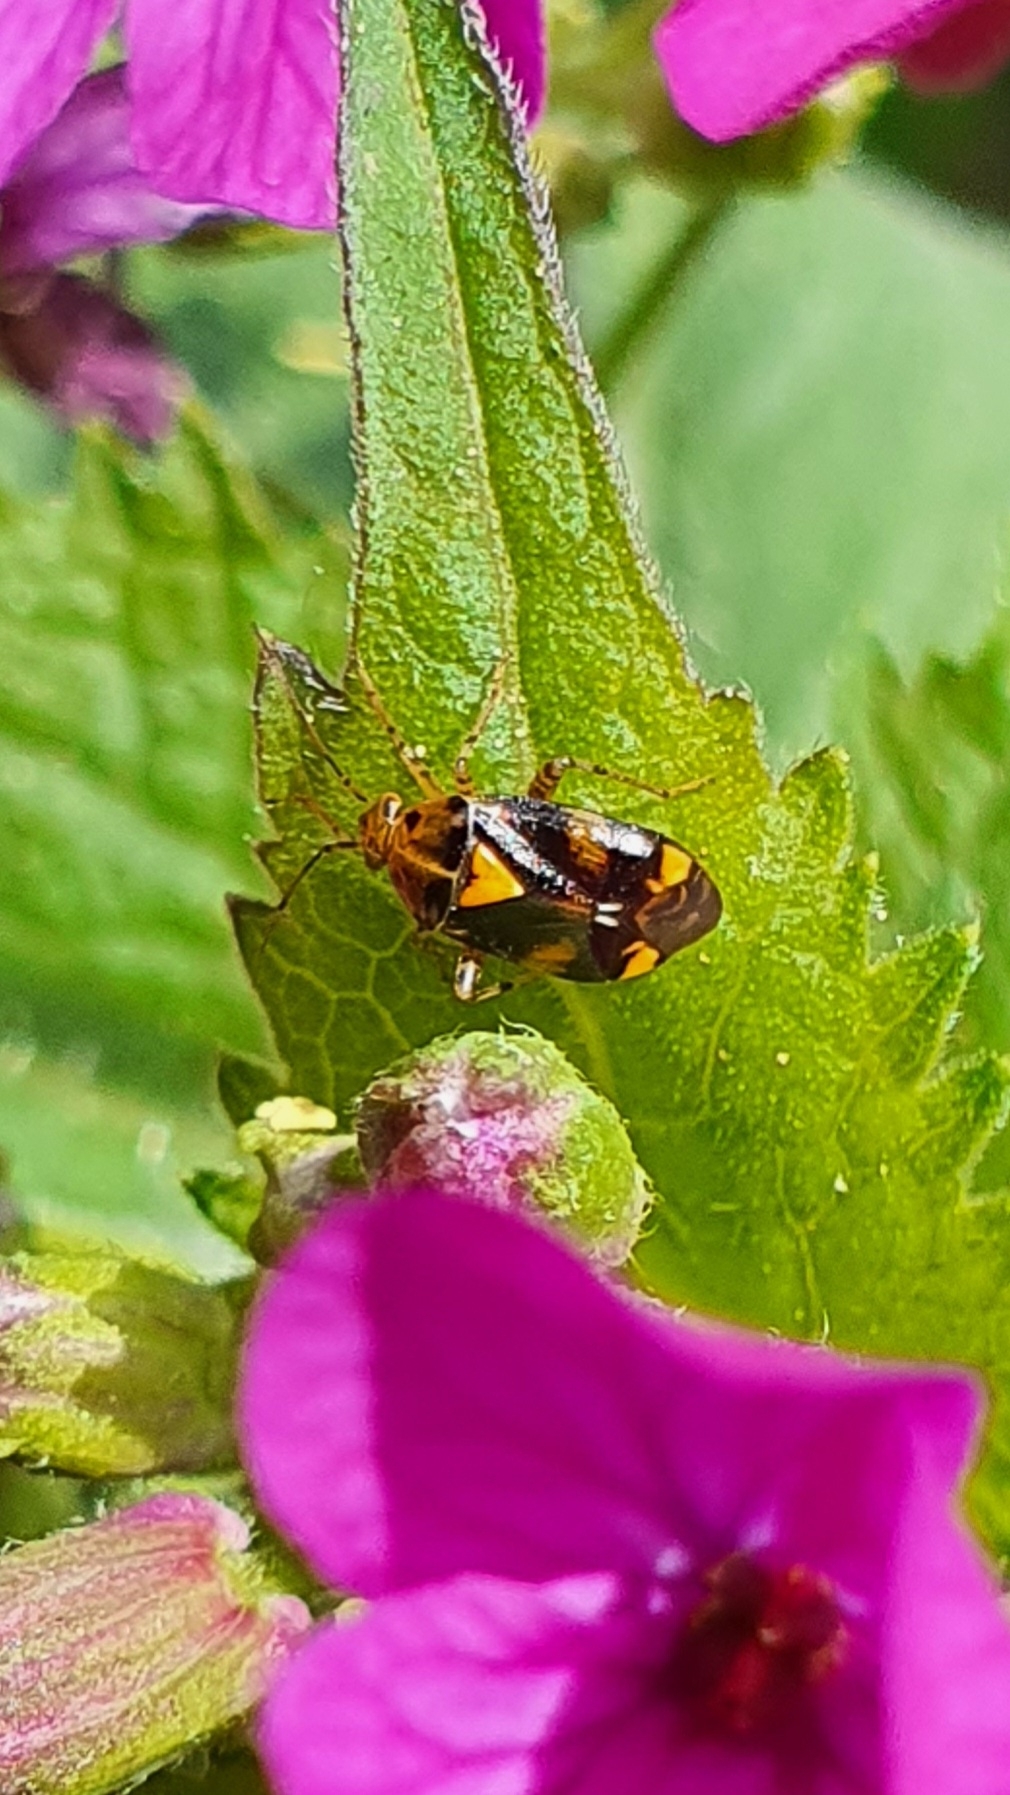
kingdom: Animalia
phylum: Arthropoda
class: Insecta
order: Hemiptera
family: Miridae
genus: Liocoris
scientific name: Liocoris tripustulatus
